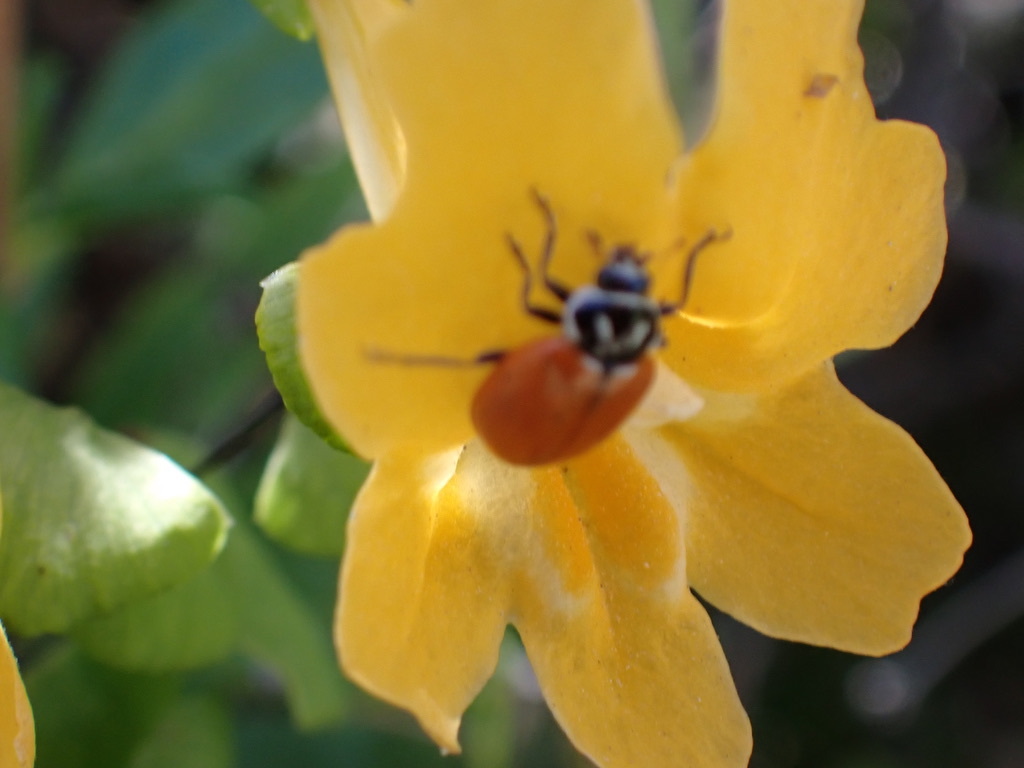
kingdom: Animalia
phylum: Arthropoda
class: Insecta
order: Coleoptera
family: Coccinellidae
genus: Hippodamia
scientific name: Hippodamia convergens
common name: Convergent lady beetle
